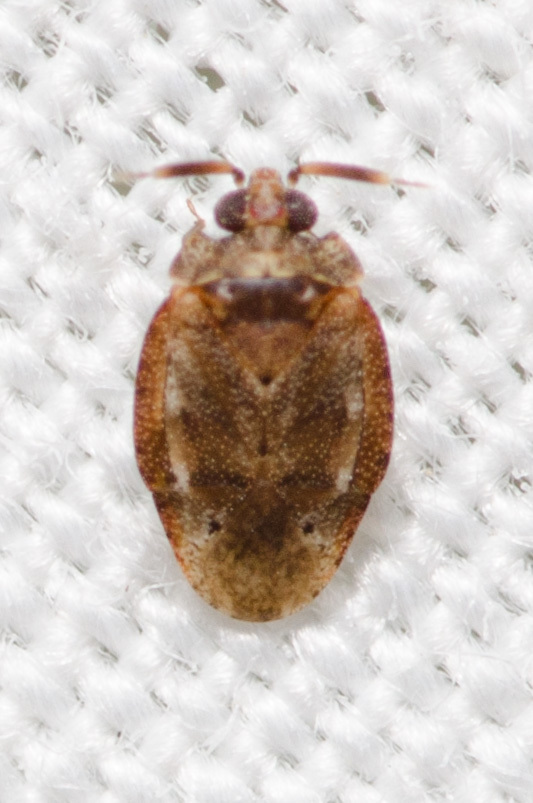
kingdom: Animalia
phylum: Arthropoda
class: Insecta
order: Hemiptera
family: Miridae
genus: Diphleps
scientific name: Diphleps unica
